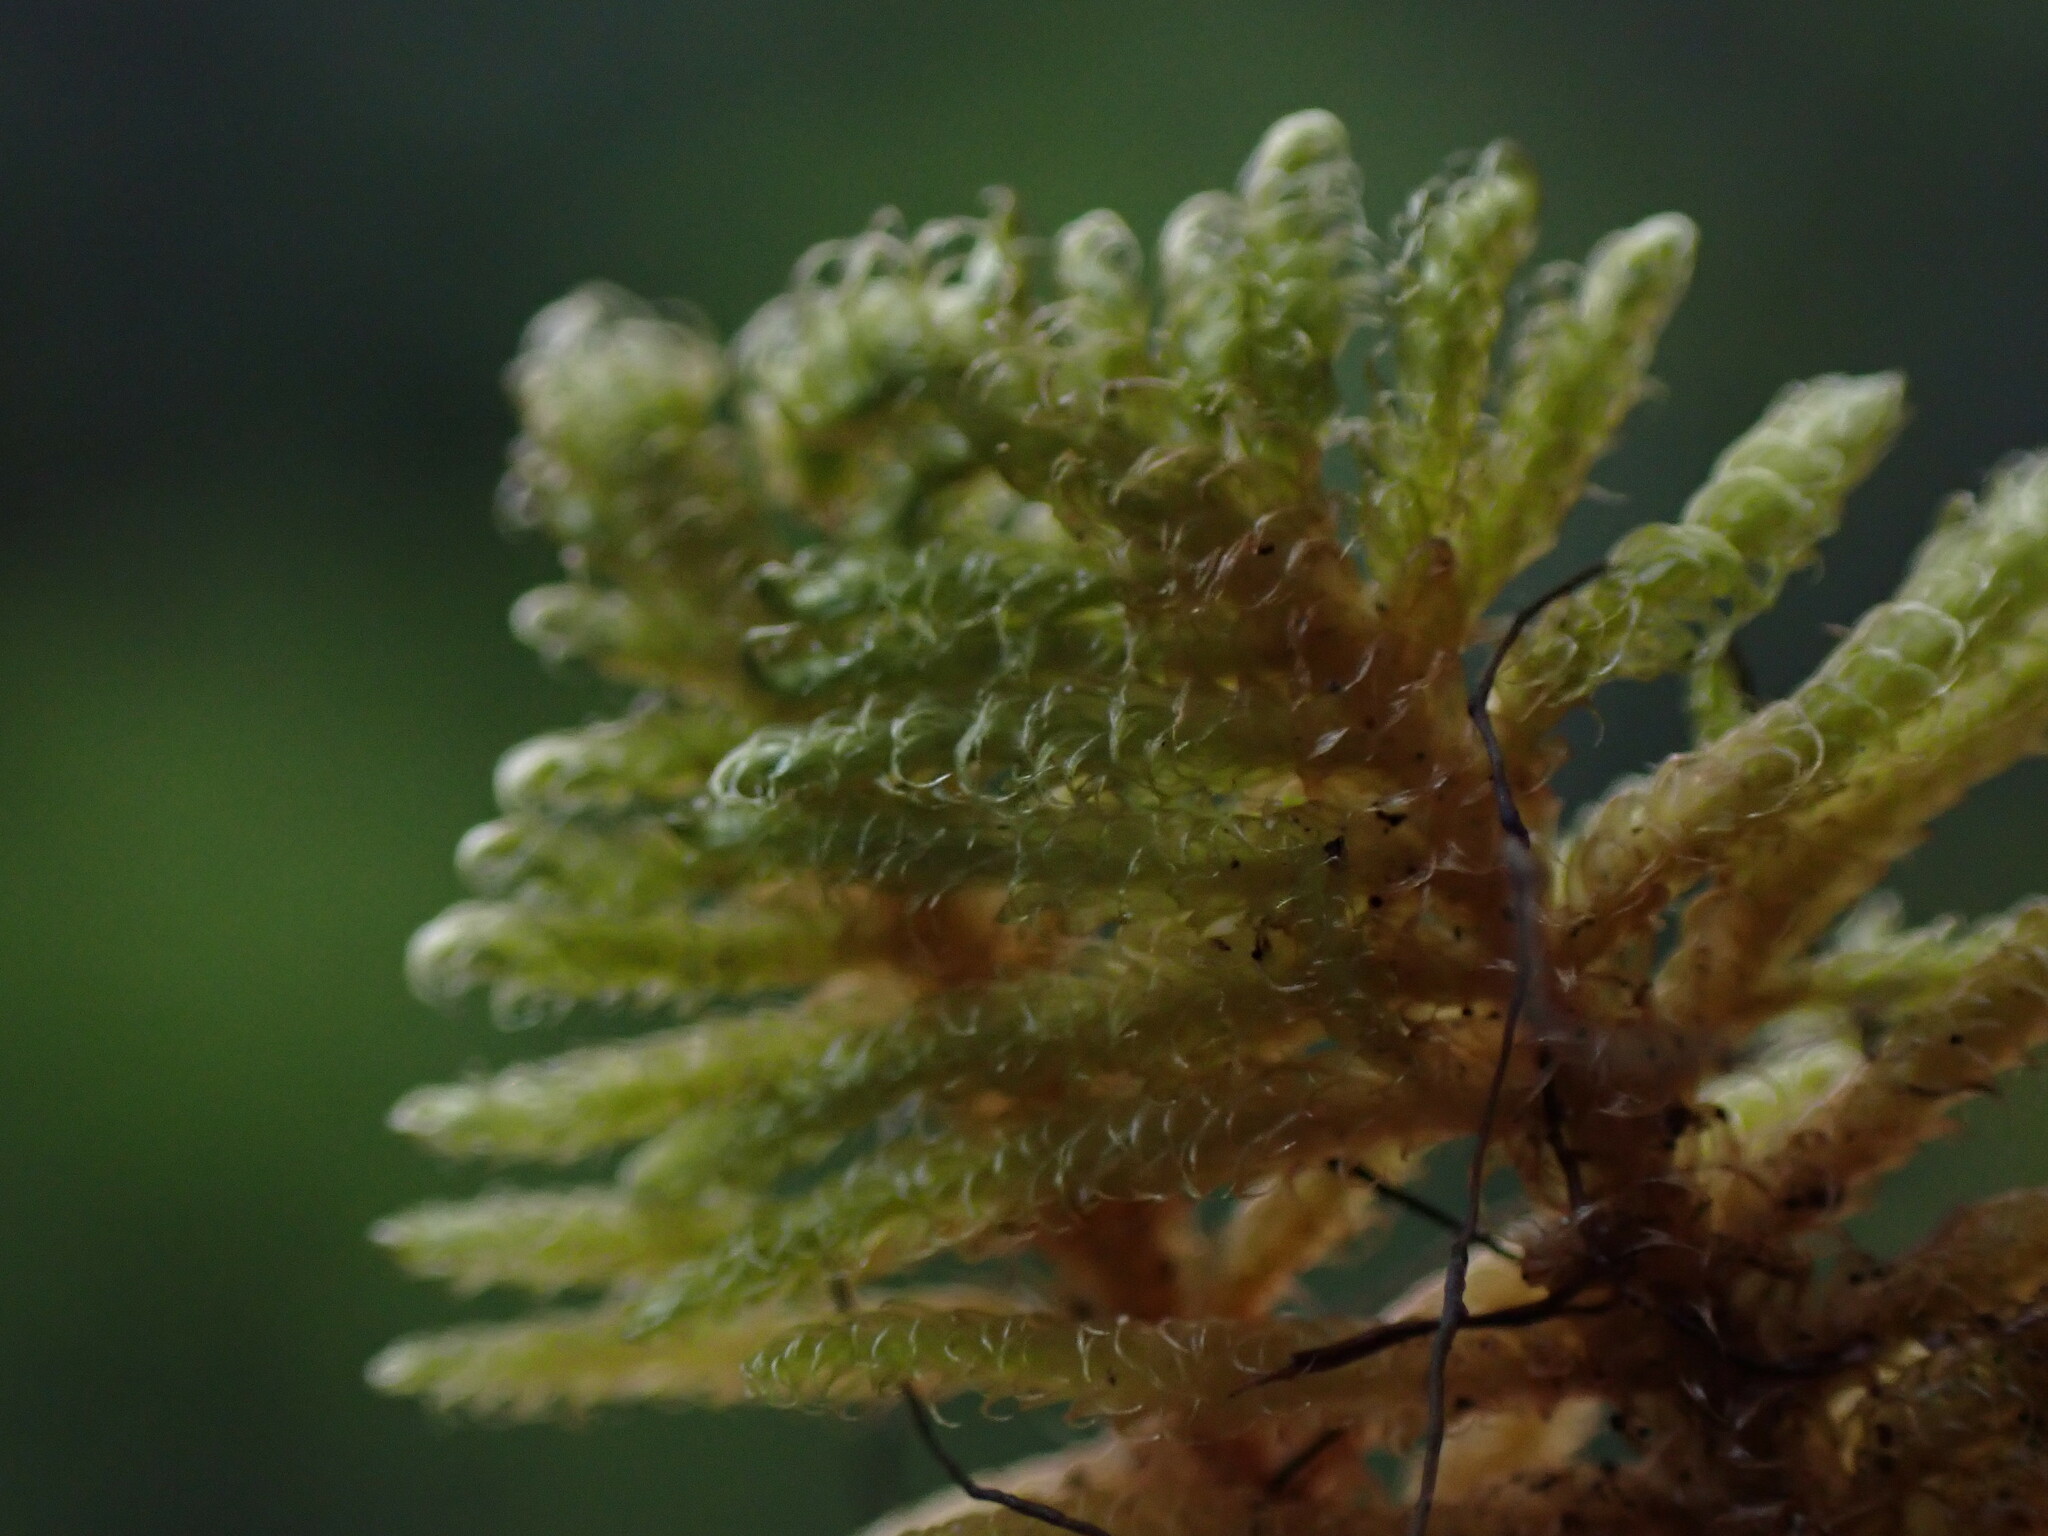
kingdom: Plantae
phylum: Bryophyta
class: Bryopsida
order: Hypnales
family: Pylaisiaceae
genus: Ptilium
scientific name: Ptilium crista-castrensis
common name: Knight's plume moss
